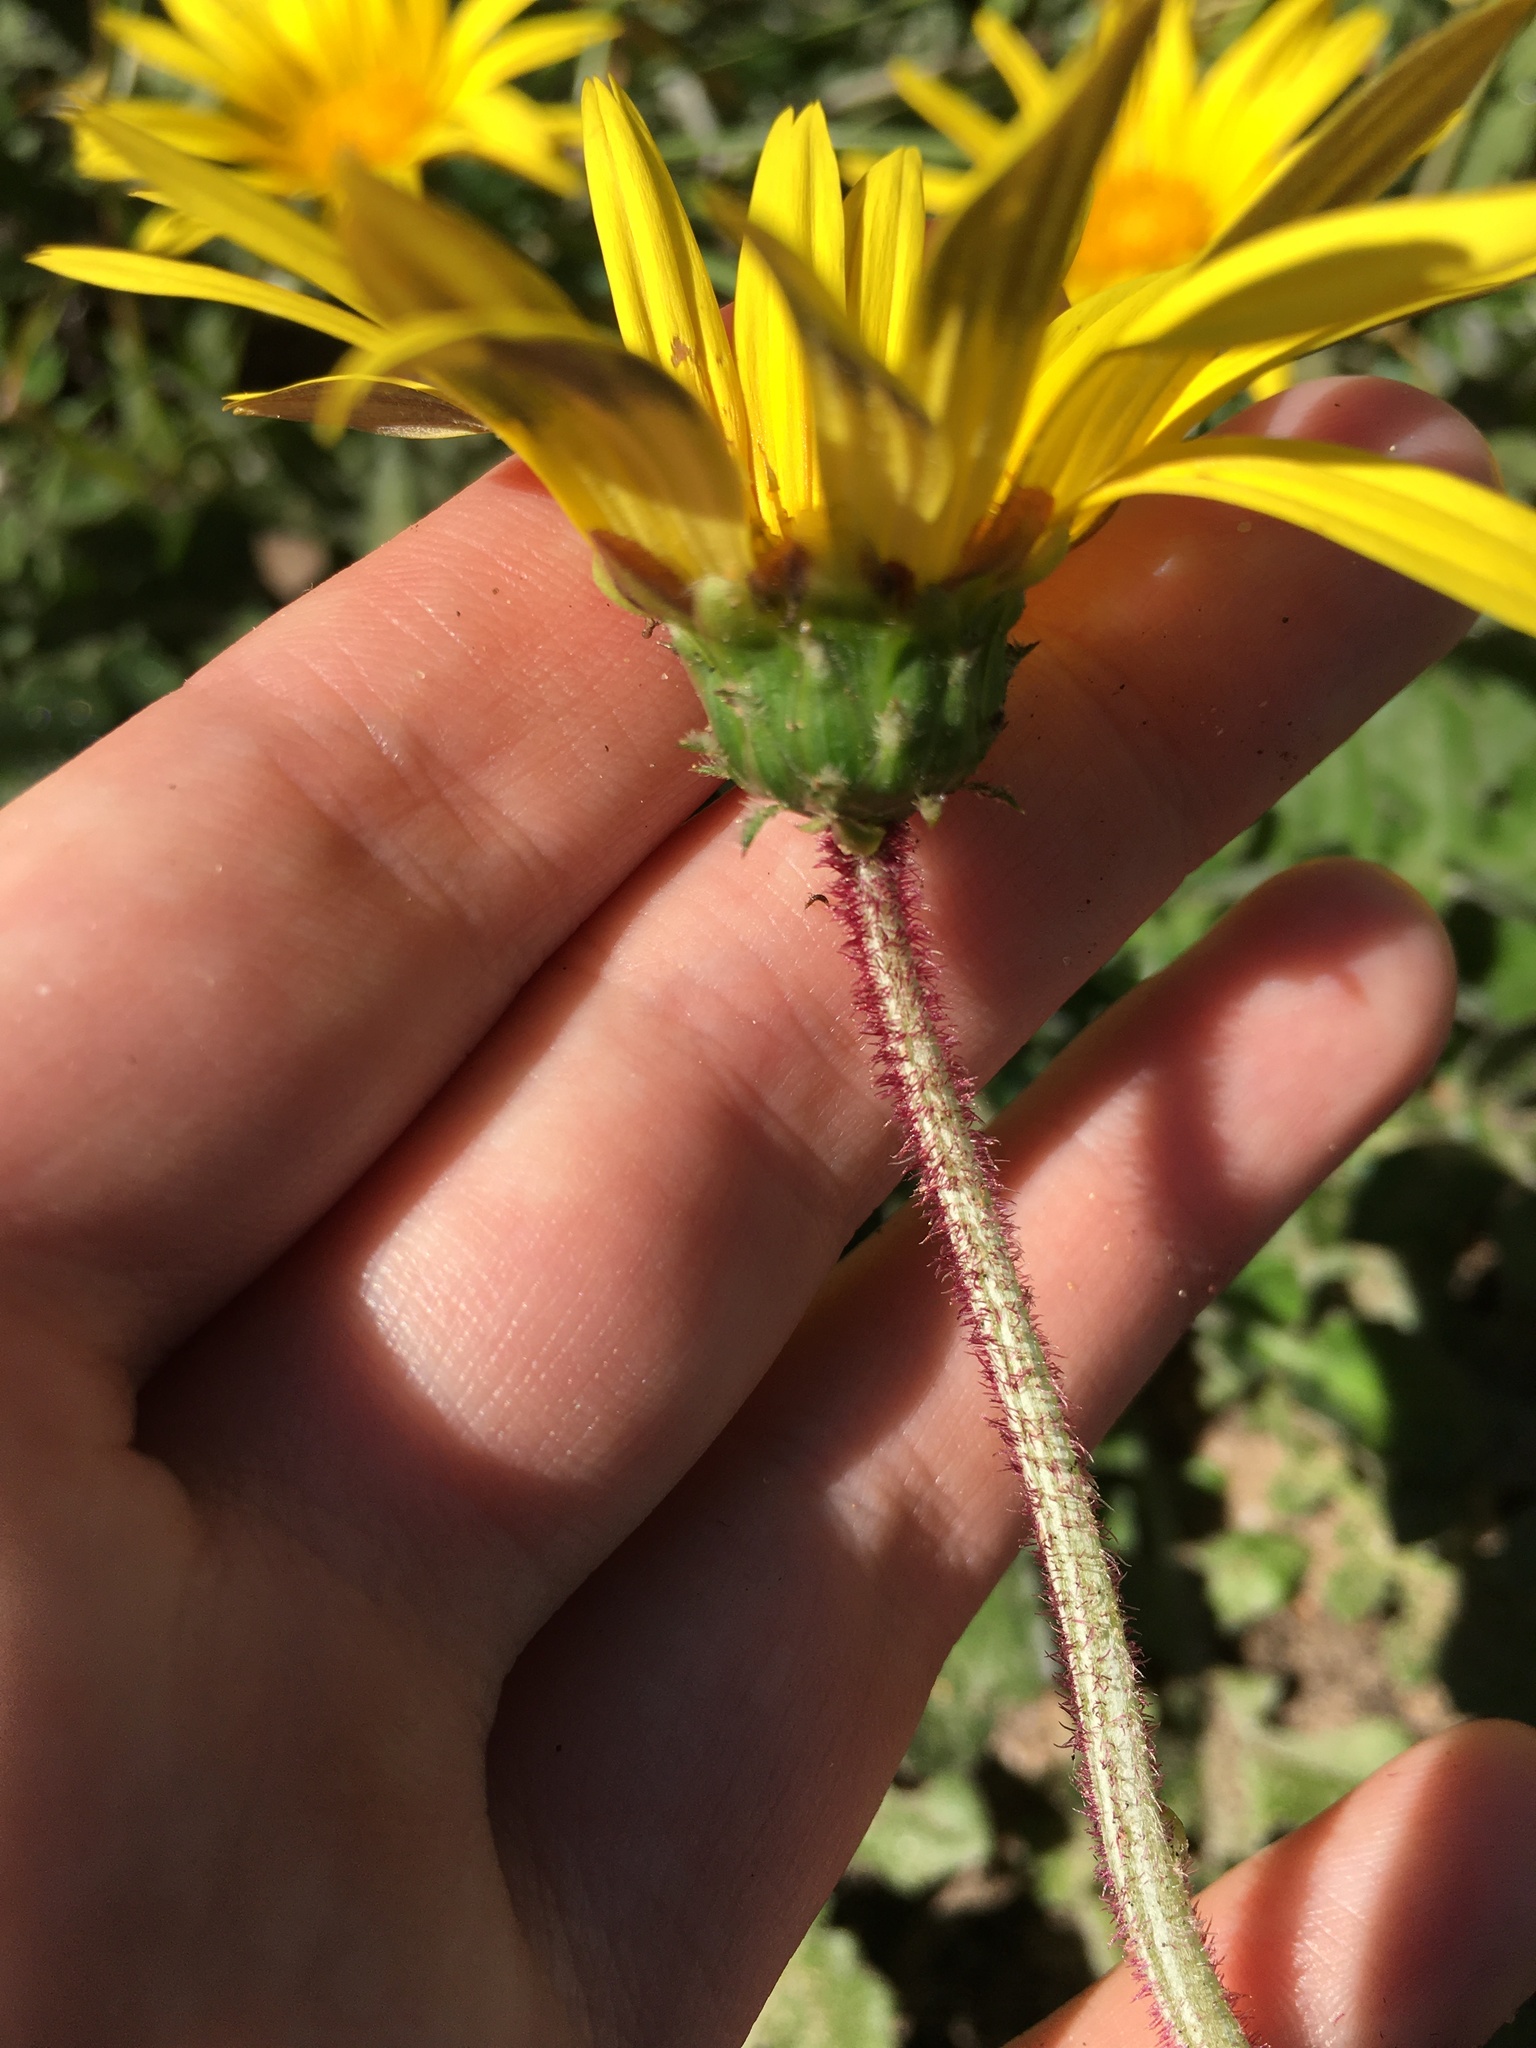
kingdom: Plantae
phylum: Tracheophyta
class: Magnoliopsida
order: Asterales
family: Asteraceae
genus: Arctotheca
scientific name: Arctotheca prostrata
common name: Capeweed
